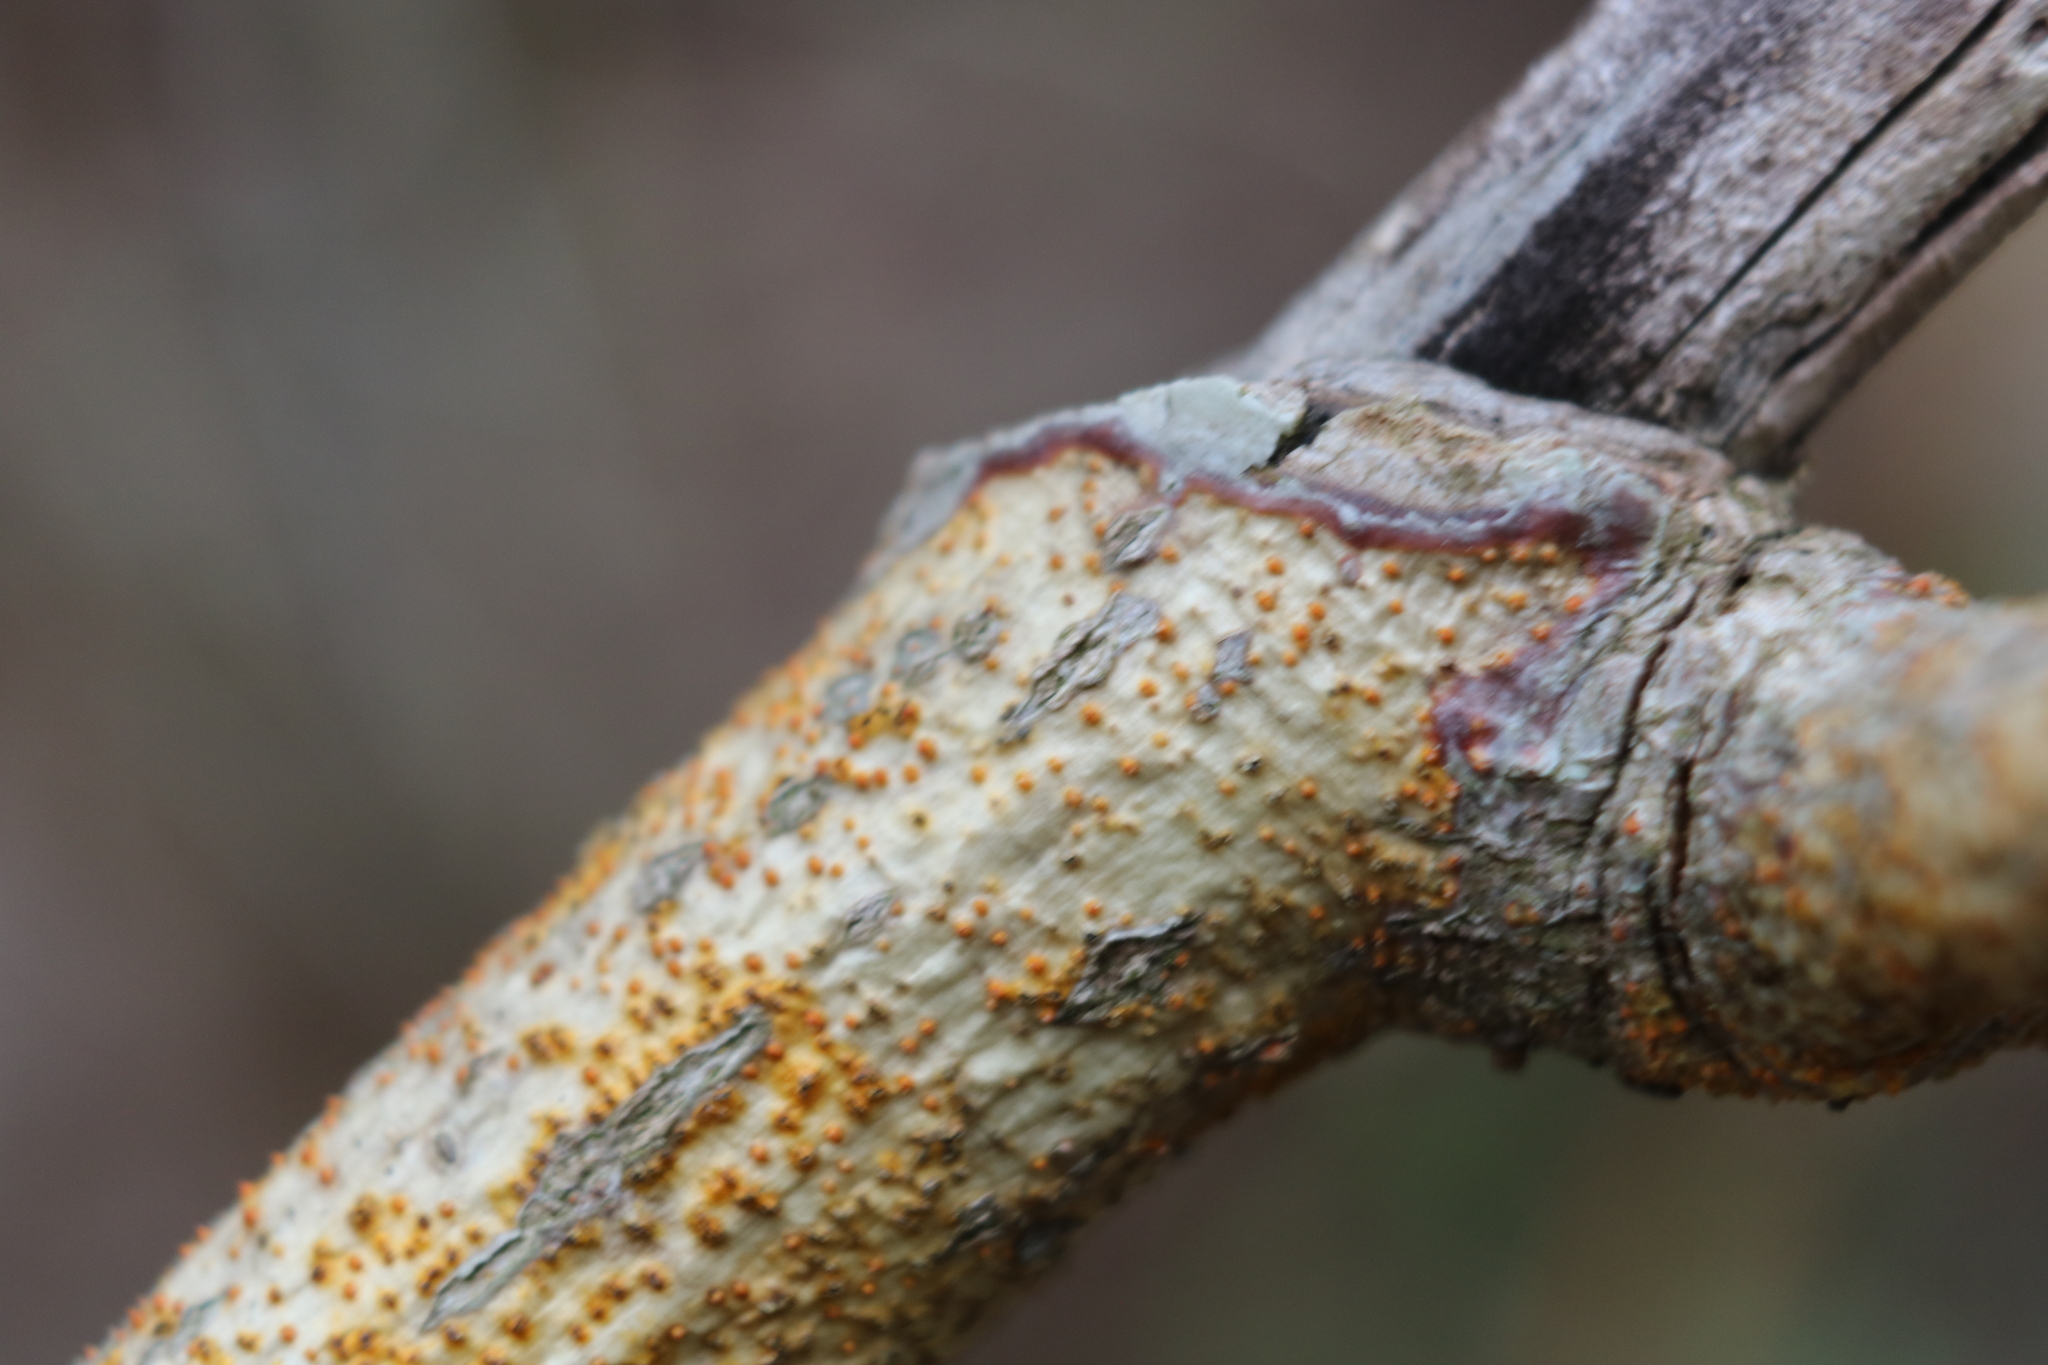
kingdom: Fungi
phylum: Ascomycota
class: Sordariomycetes
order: Diaporthales
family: Cryphonectriaceae
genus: Aurantioporthe
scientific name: Aurantioporthe corni
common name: Dogwood golden canker
